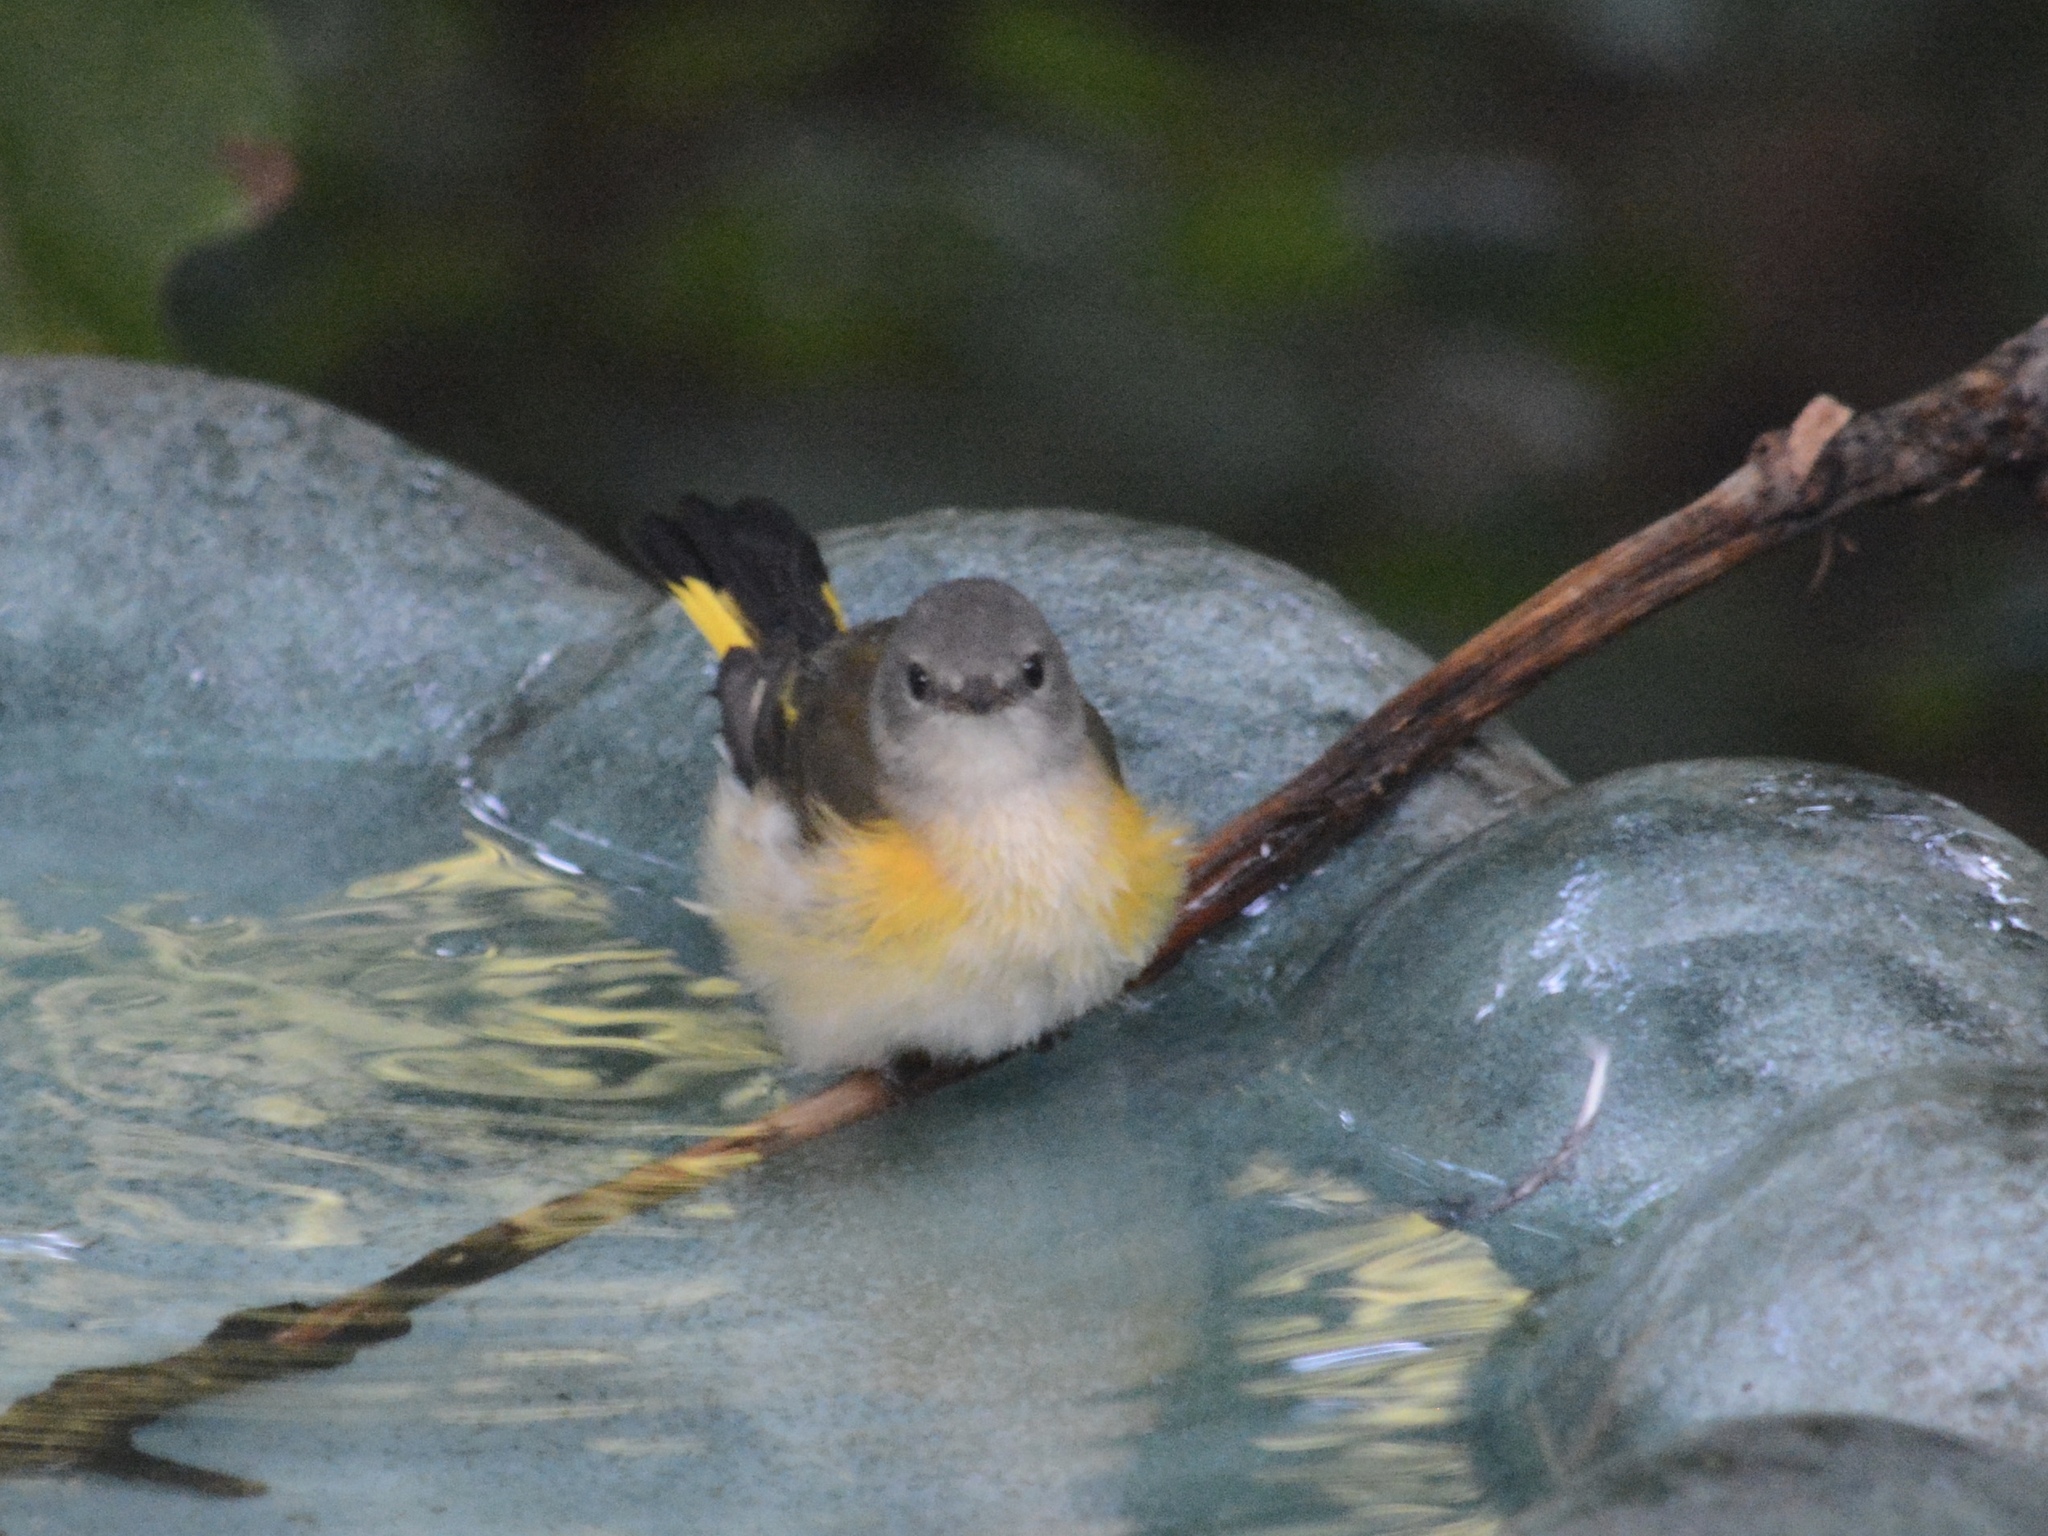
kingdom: Animalia
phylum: Chordata
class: Aves
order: Passeriformes
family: Parulidae
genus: Setophaga
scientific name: Setophaga ruticilla
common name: American redstart
